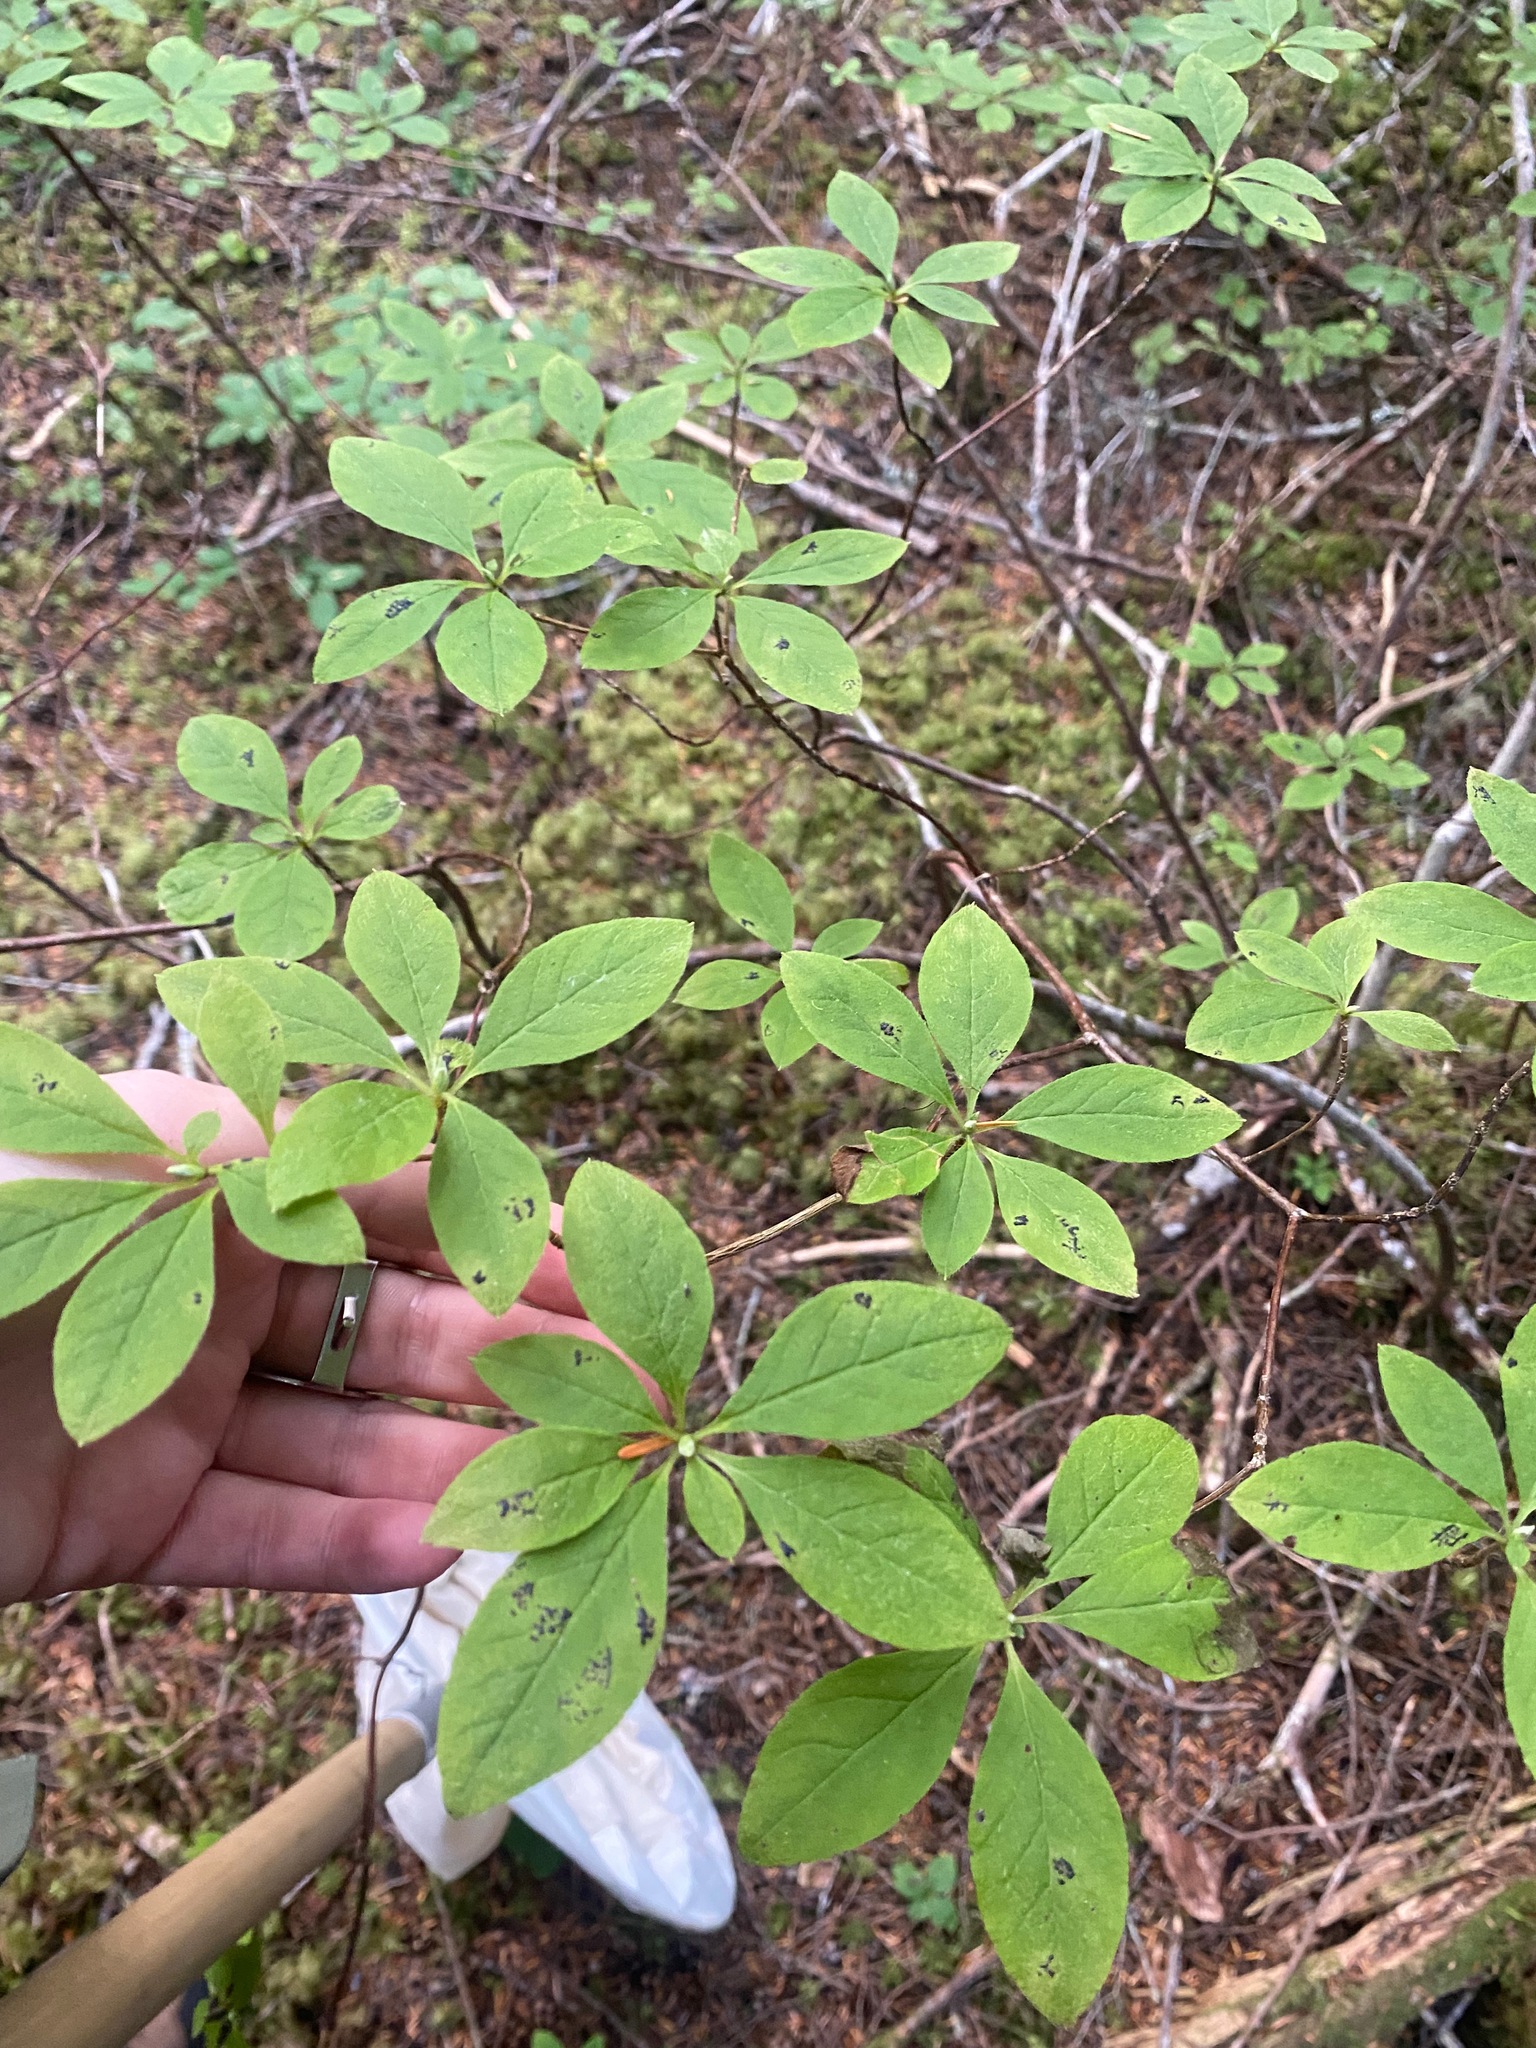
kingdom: Plantae
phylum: Tracheophyta
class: Magnoliopsida
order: Ericales
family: Ericaceae
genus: Rhododendron
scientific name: Rhododendron menziesii
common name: Pacific menziesia
